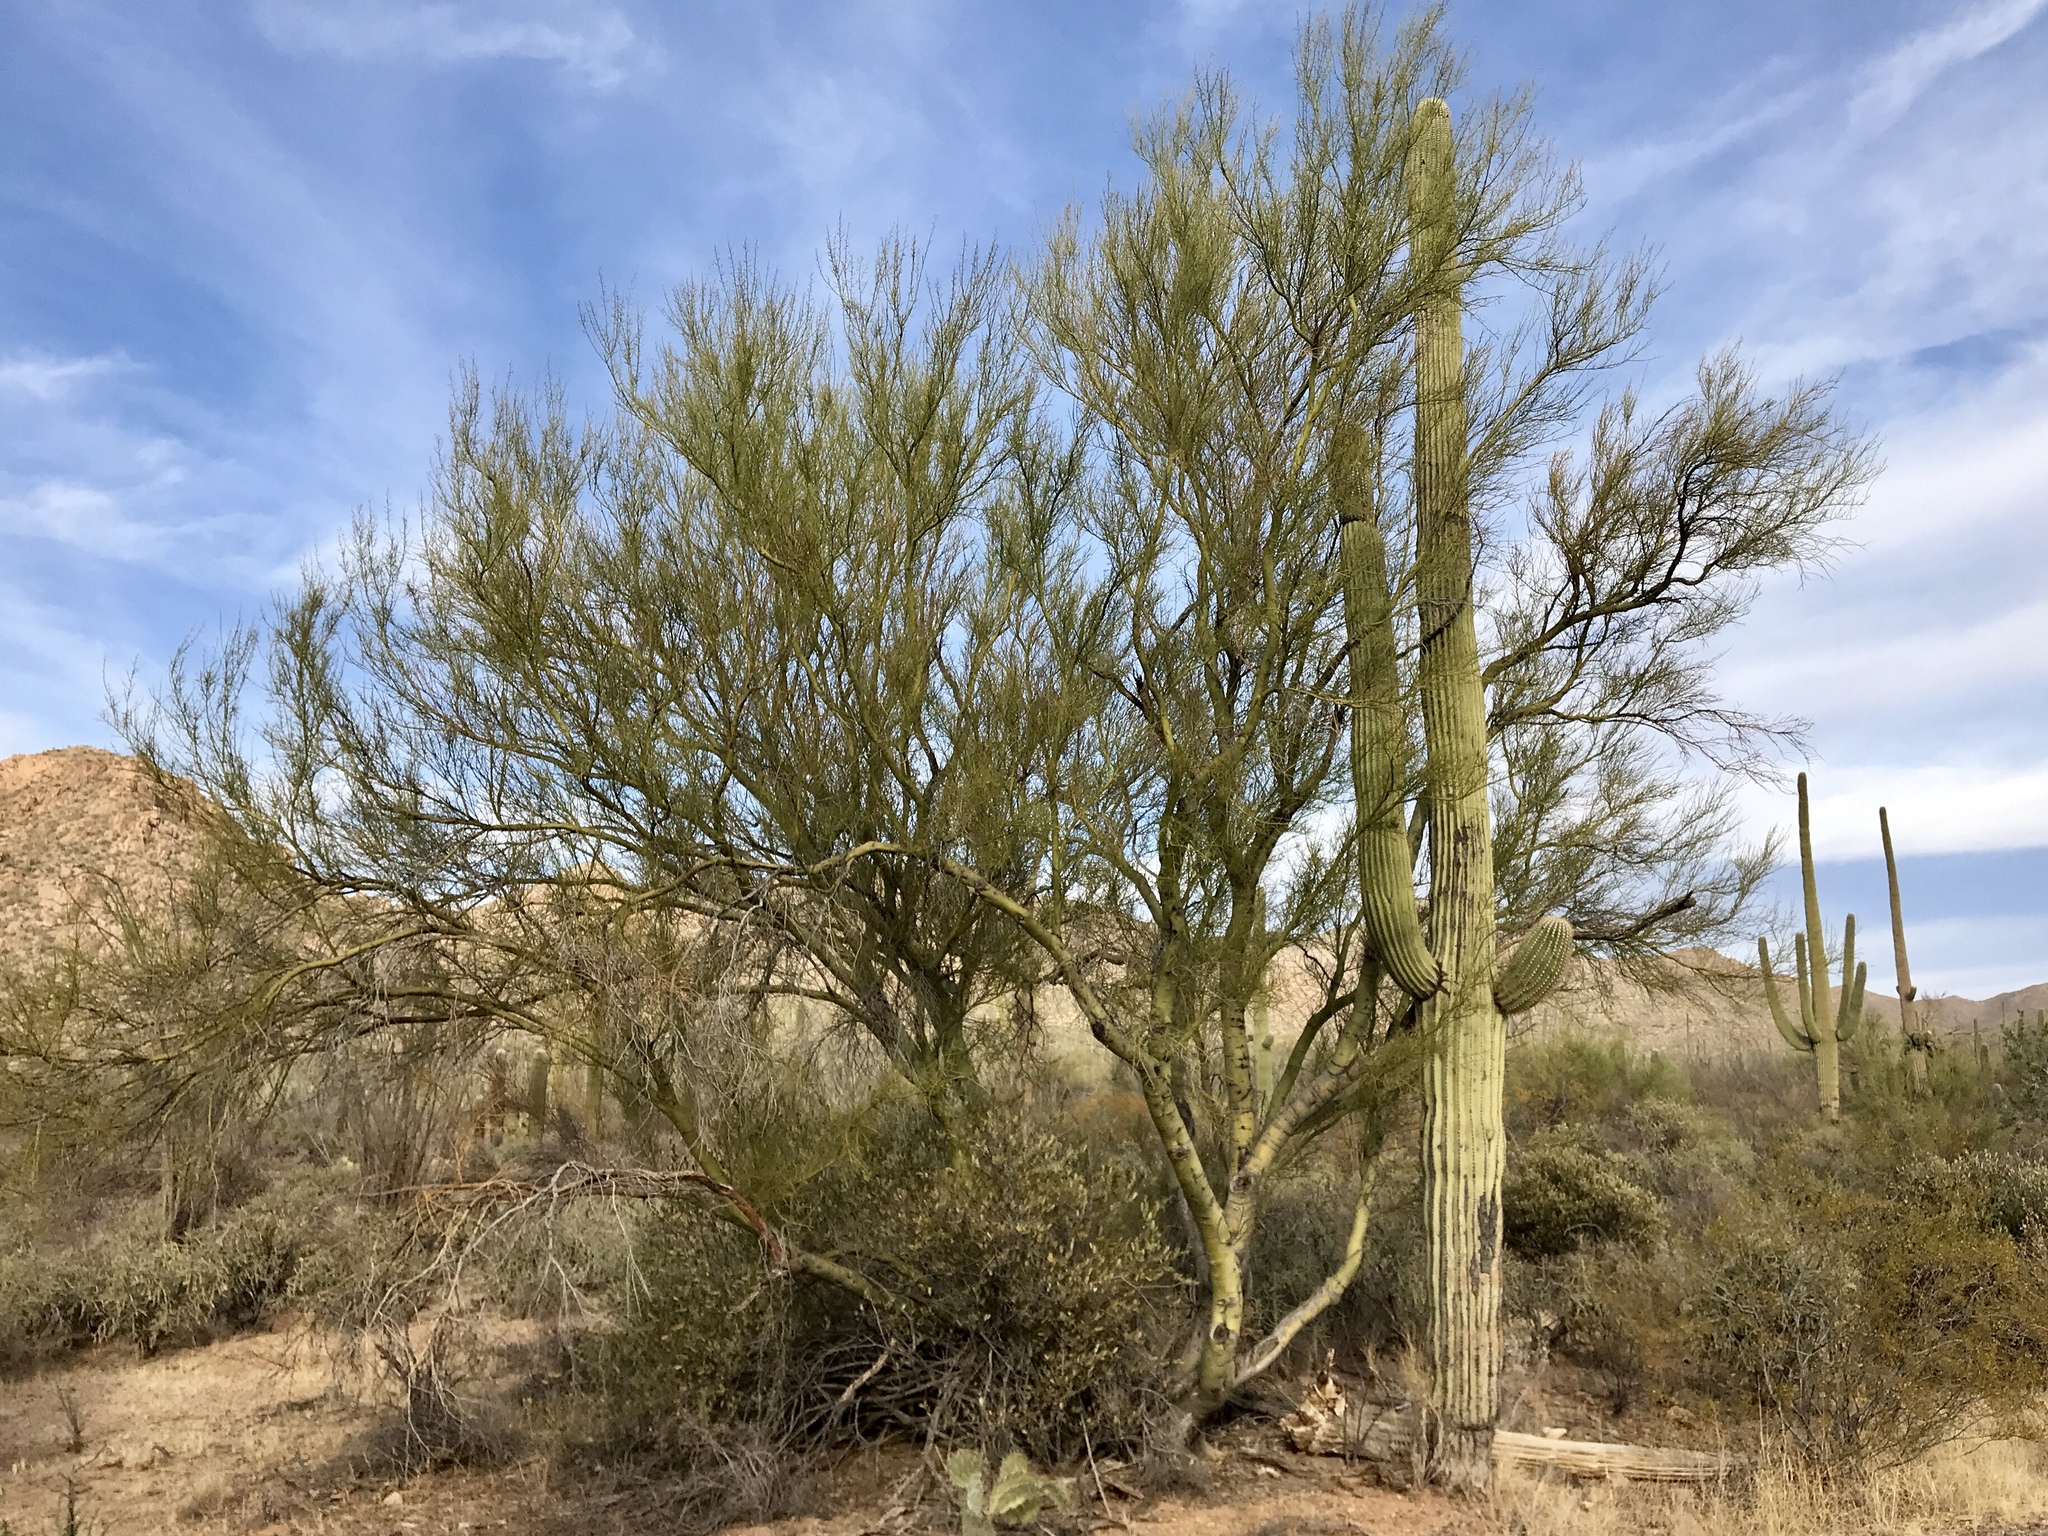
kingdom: Plantae
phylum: Tracheophyta
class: Magnoliopsida
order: Fabales
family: Fabaceae
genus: Parkinsonia
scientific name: Parkinsonia microphylla
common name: Yellow paloverde
